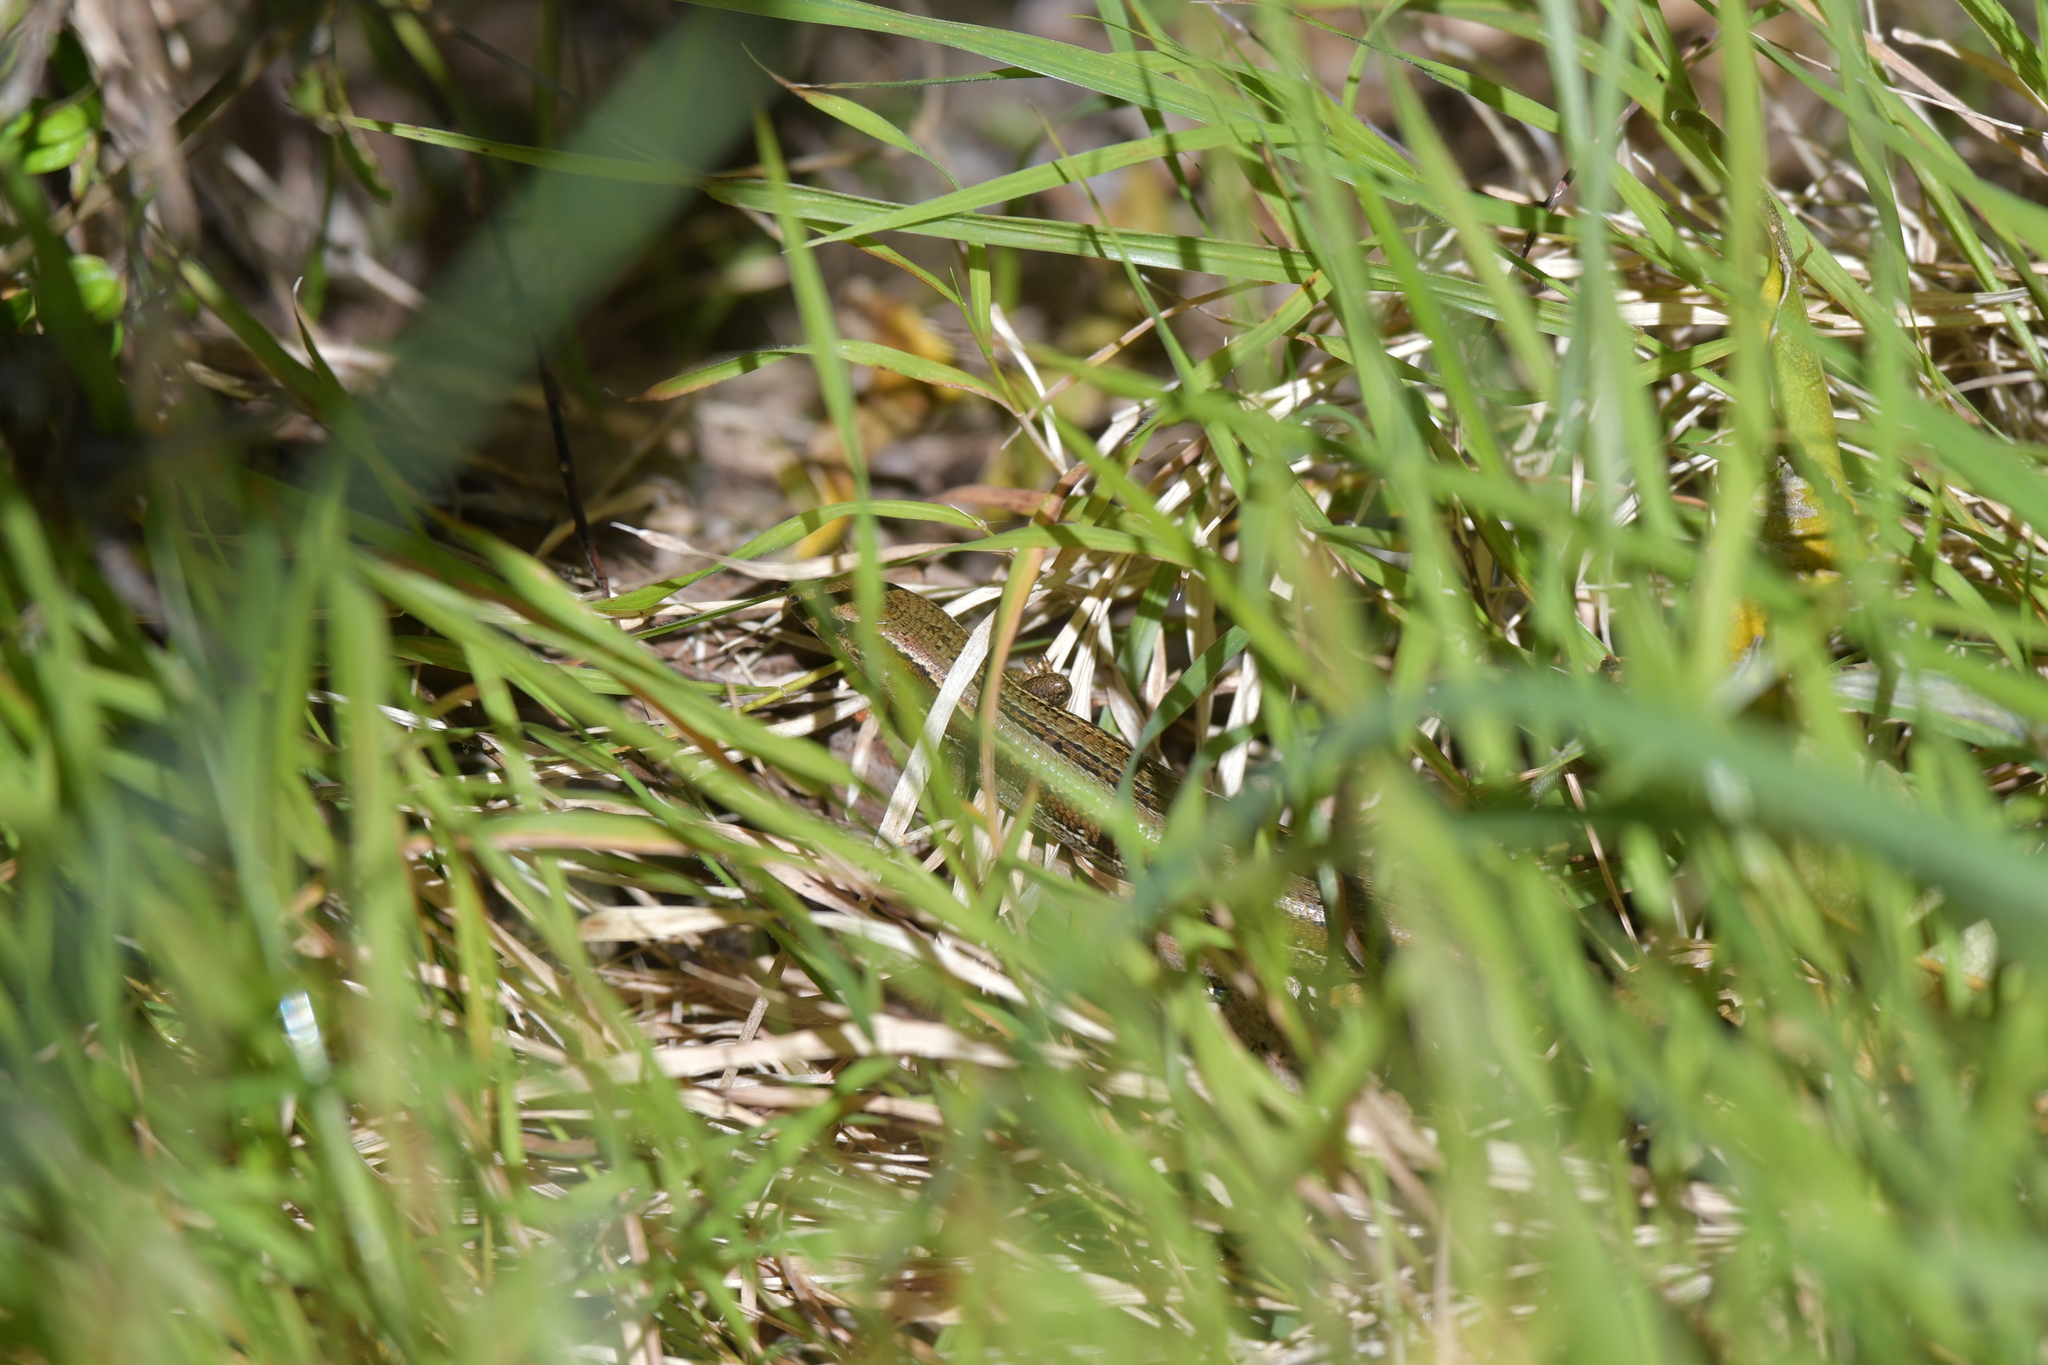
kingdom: Animalia
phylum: Chordata
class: Squamata
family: Scincidae
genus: Oligosoma
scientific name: Oligosoma polychroma
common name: Common new zealand skink
